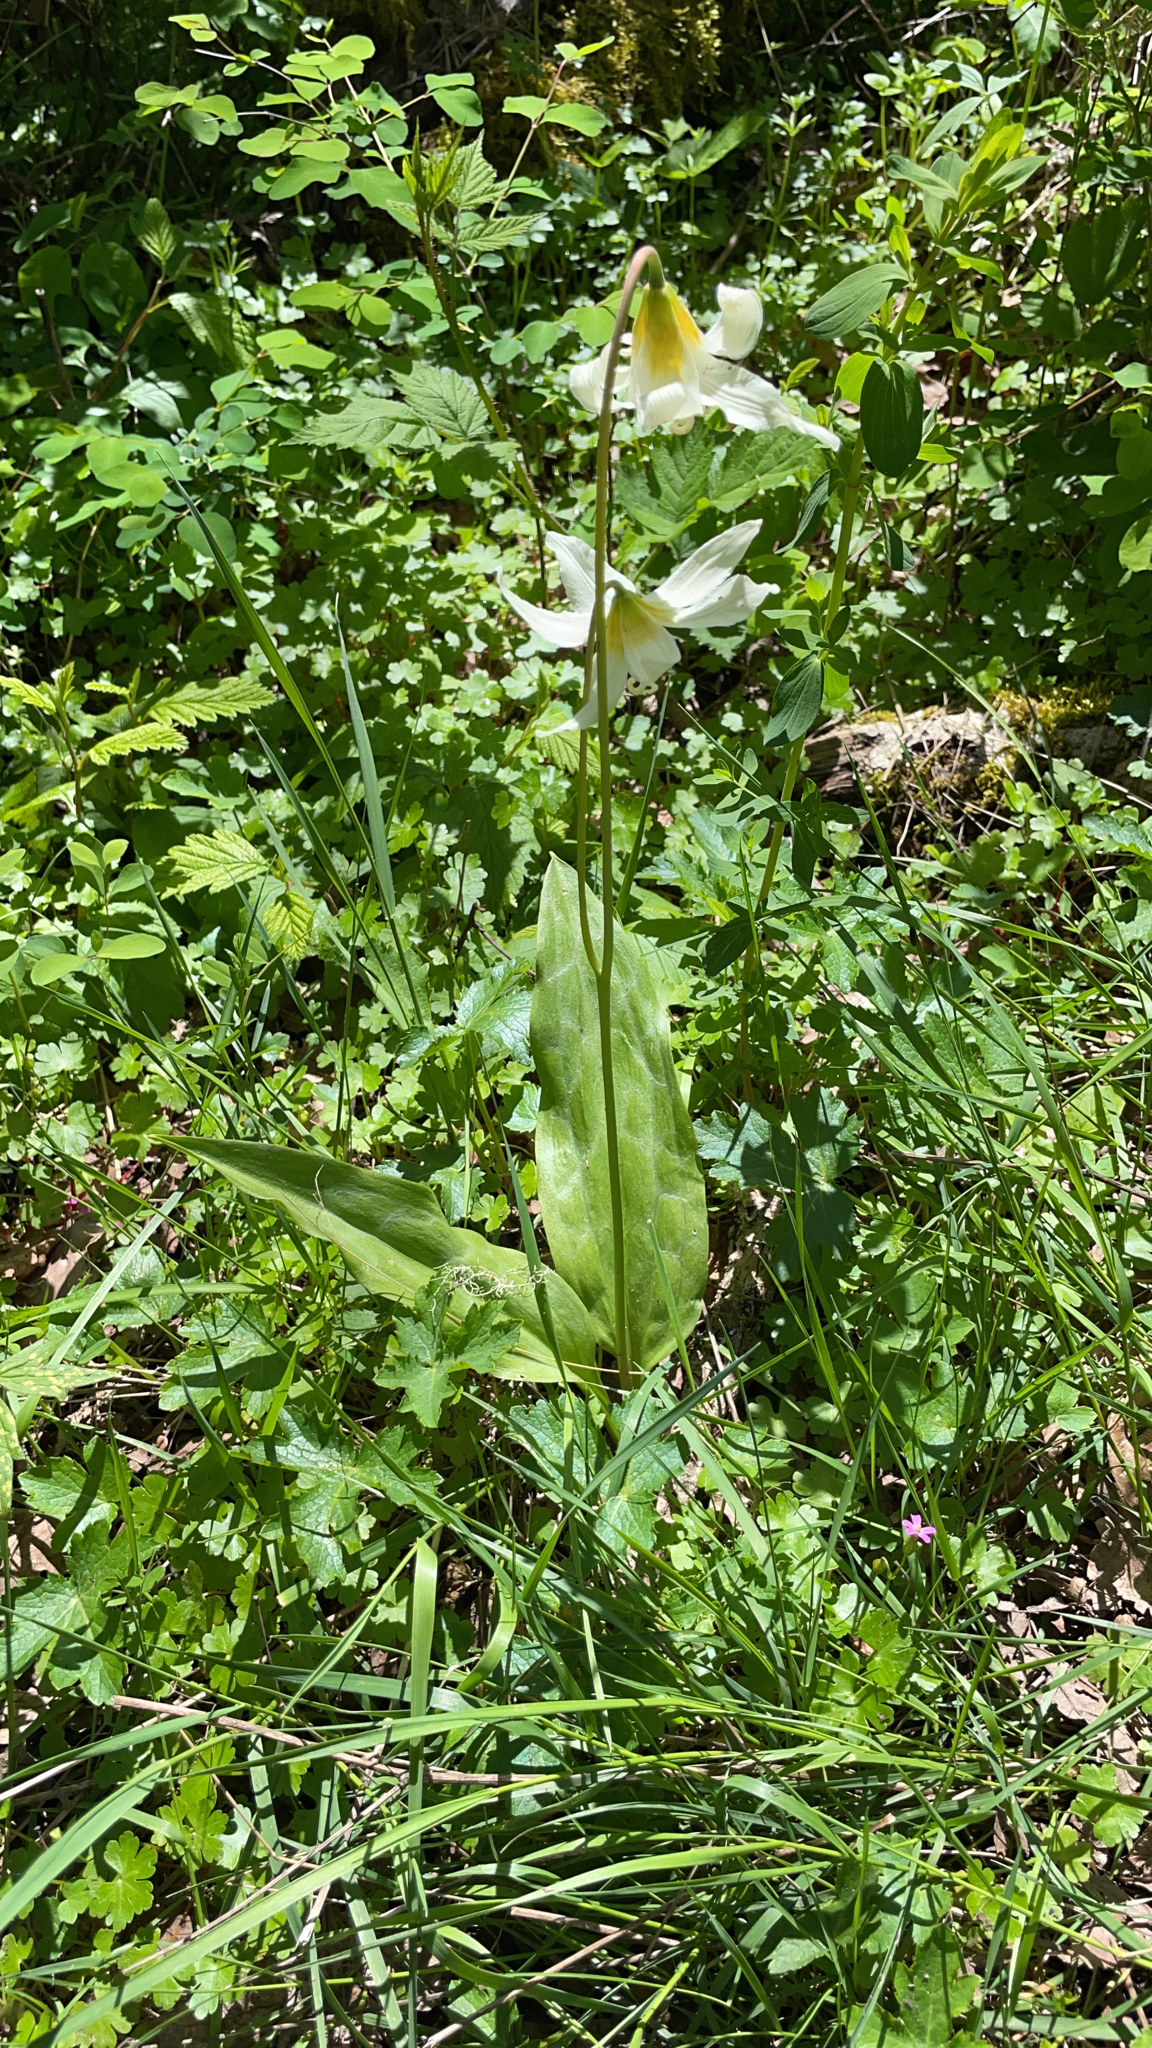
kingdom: Plantae
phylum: Tracheophyta
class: Liliopsida
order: Liliales
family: Liliaceae
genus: Erythronium
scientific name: Erythronium oregonum
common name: Giant adder's-tongue
